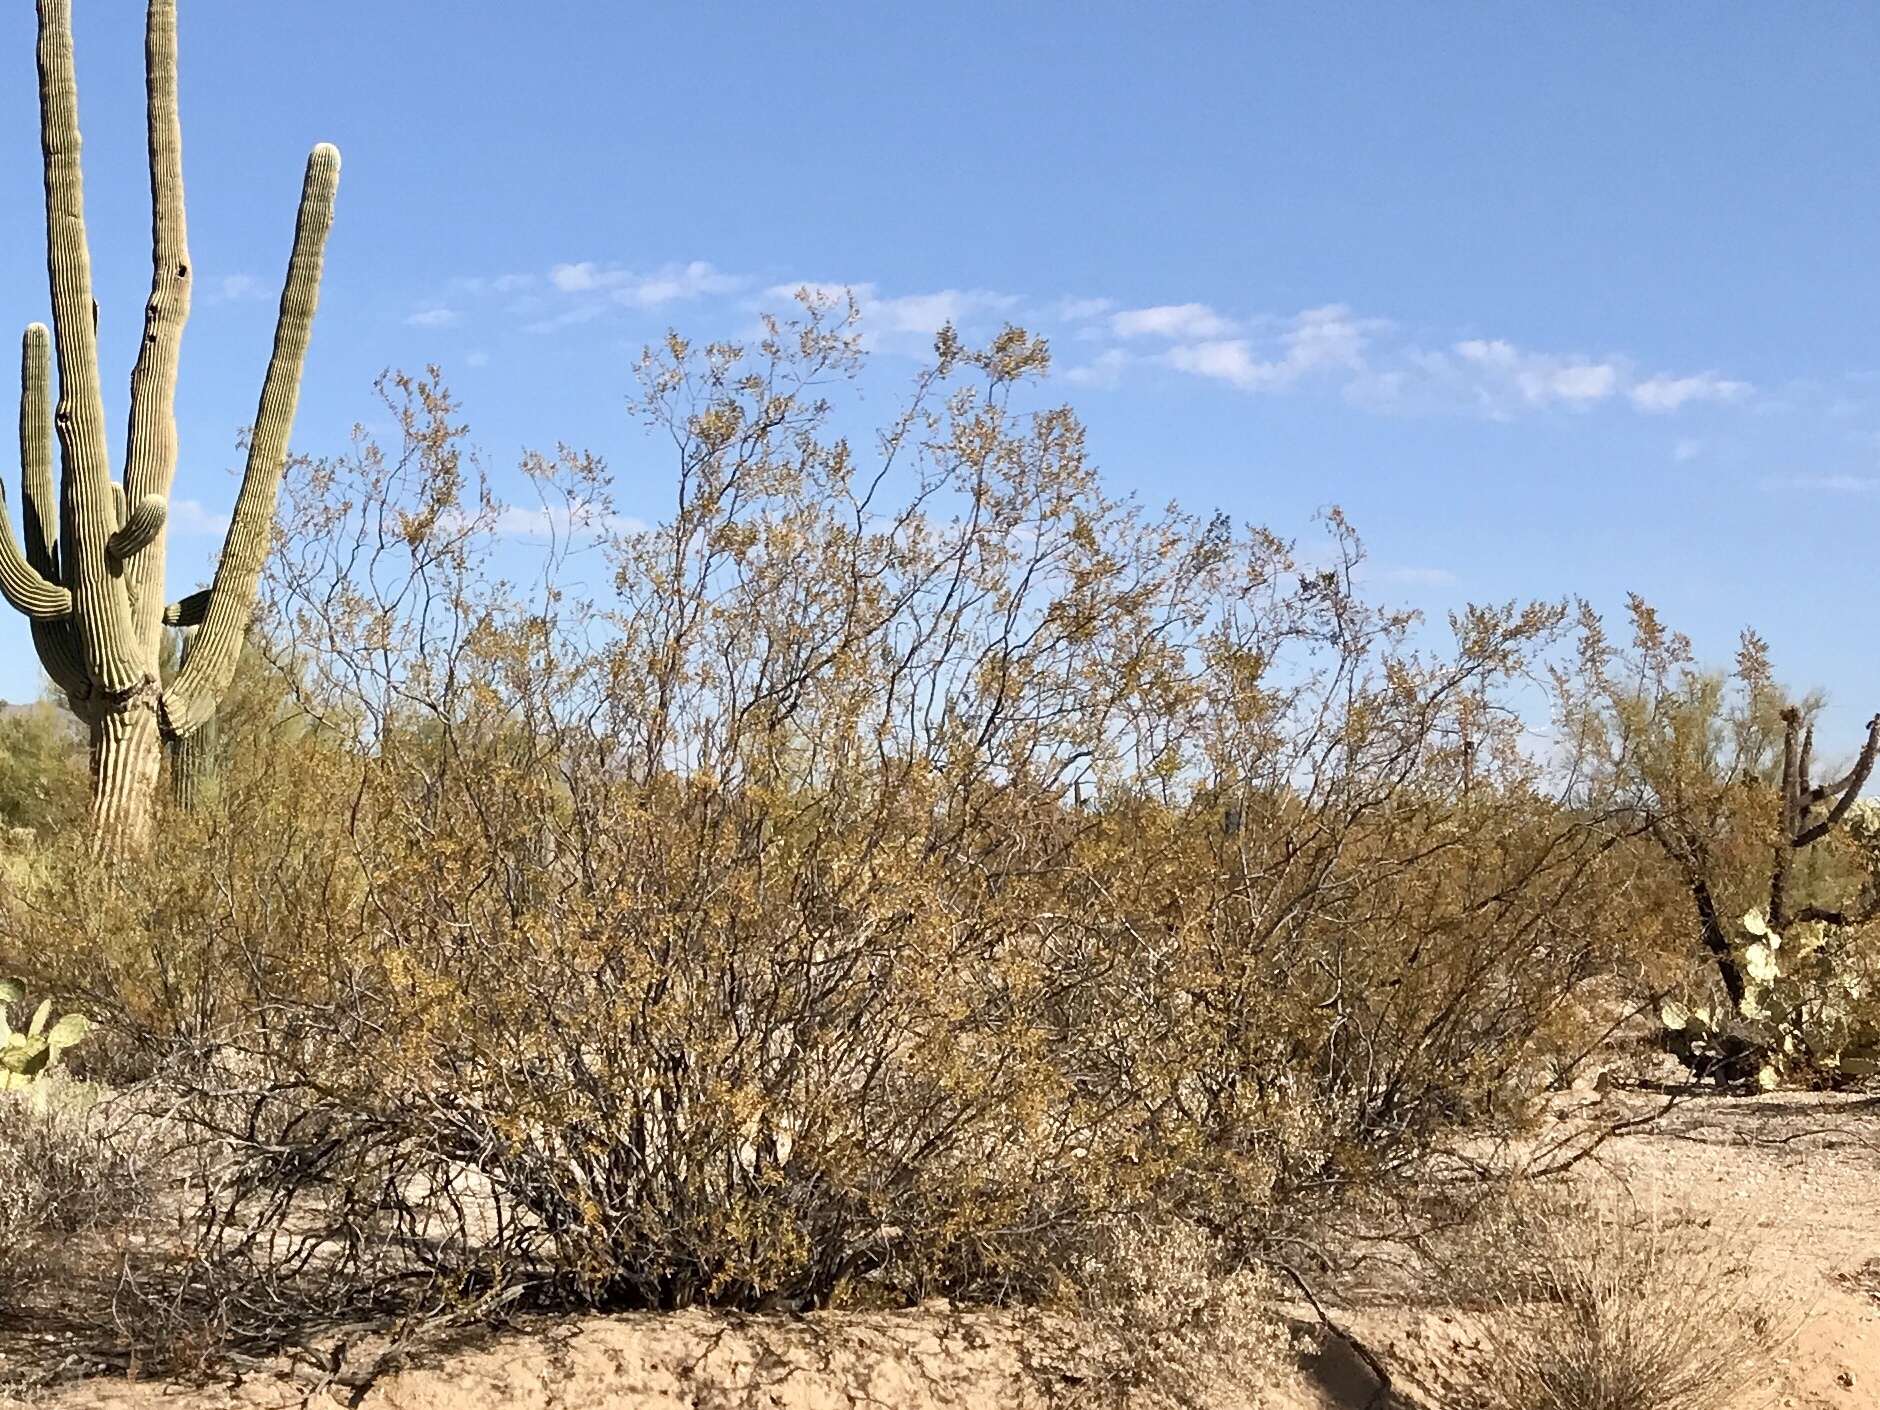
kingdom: Plantae
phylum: Tracheophyta
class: Magnoliopsida
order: Zygophyllales
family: Zygophyllaceae
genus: Larrea
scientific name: Larrea tridentata
